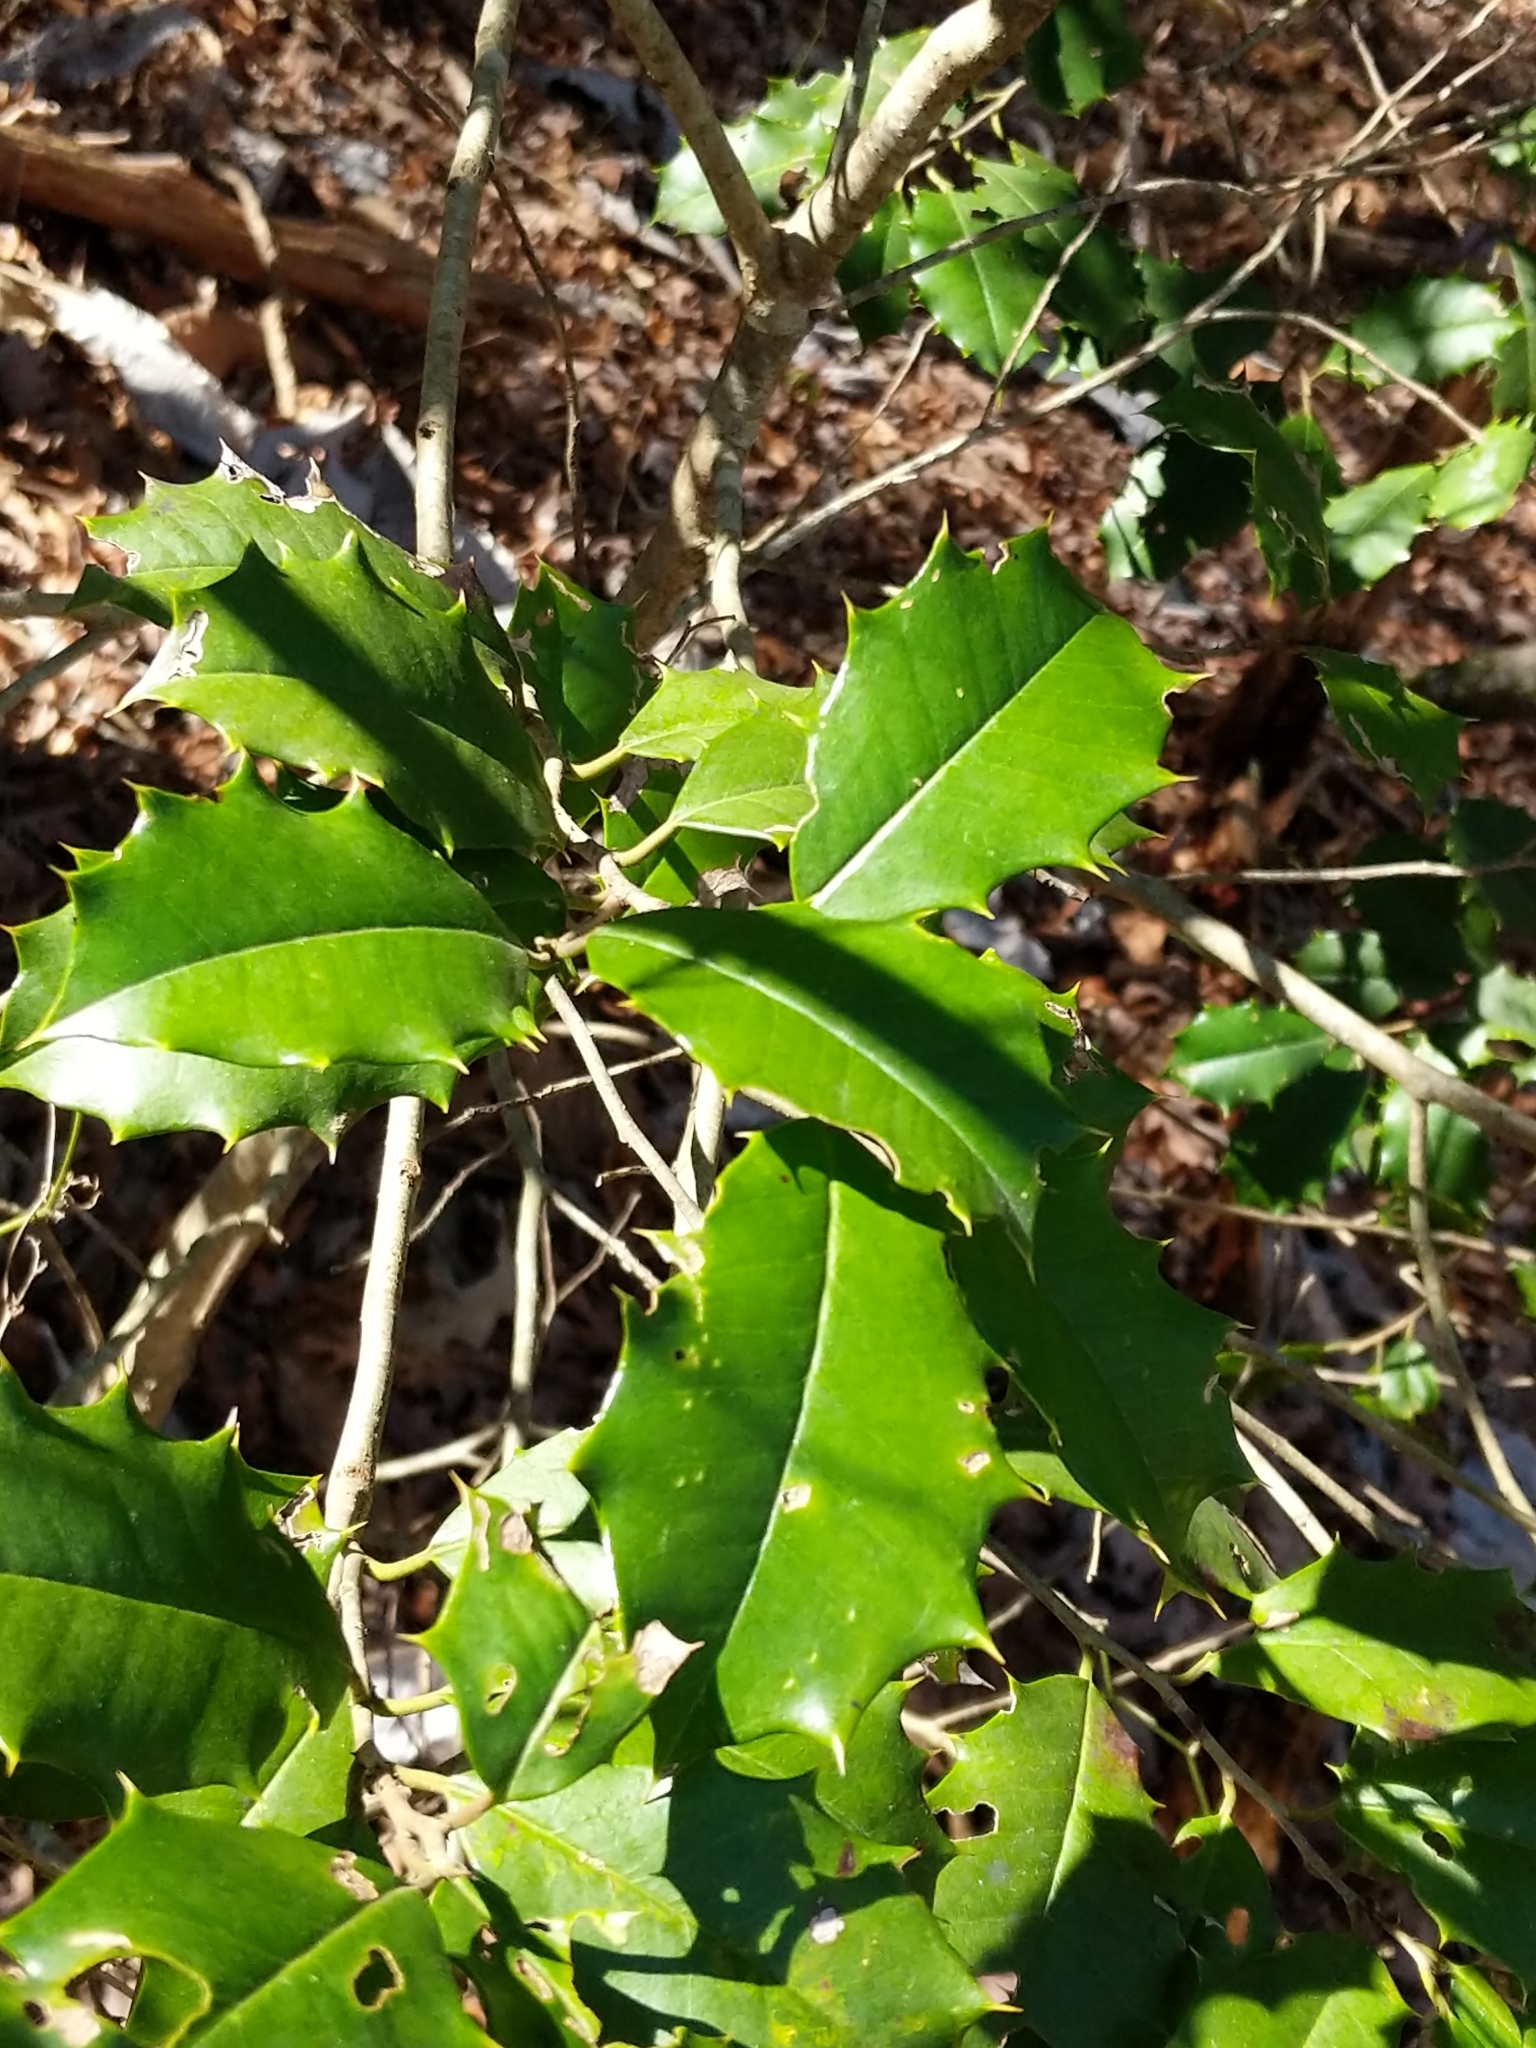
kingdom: Plantae
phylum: Tracheophyta
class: Magnoliopsida
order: Aquifoliales
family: Aquifoliaceae
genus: Ilex
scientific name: Ilex opaca
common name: American holly
